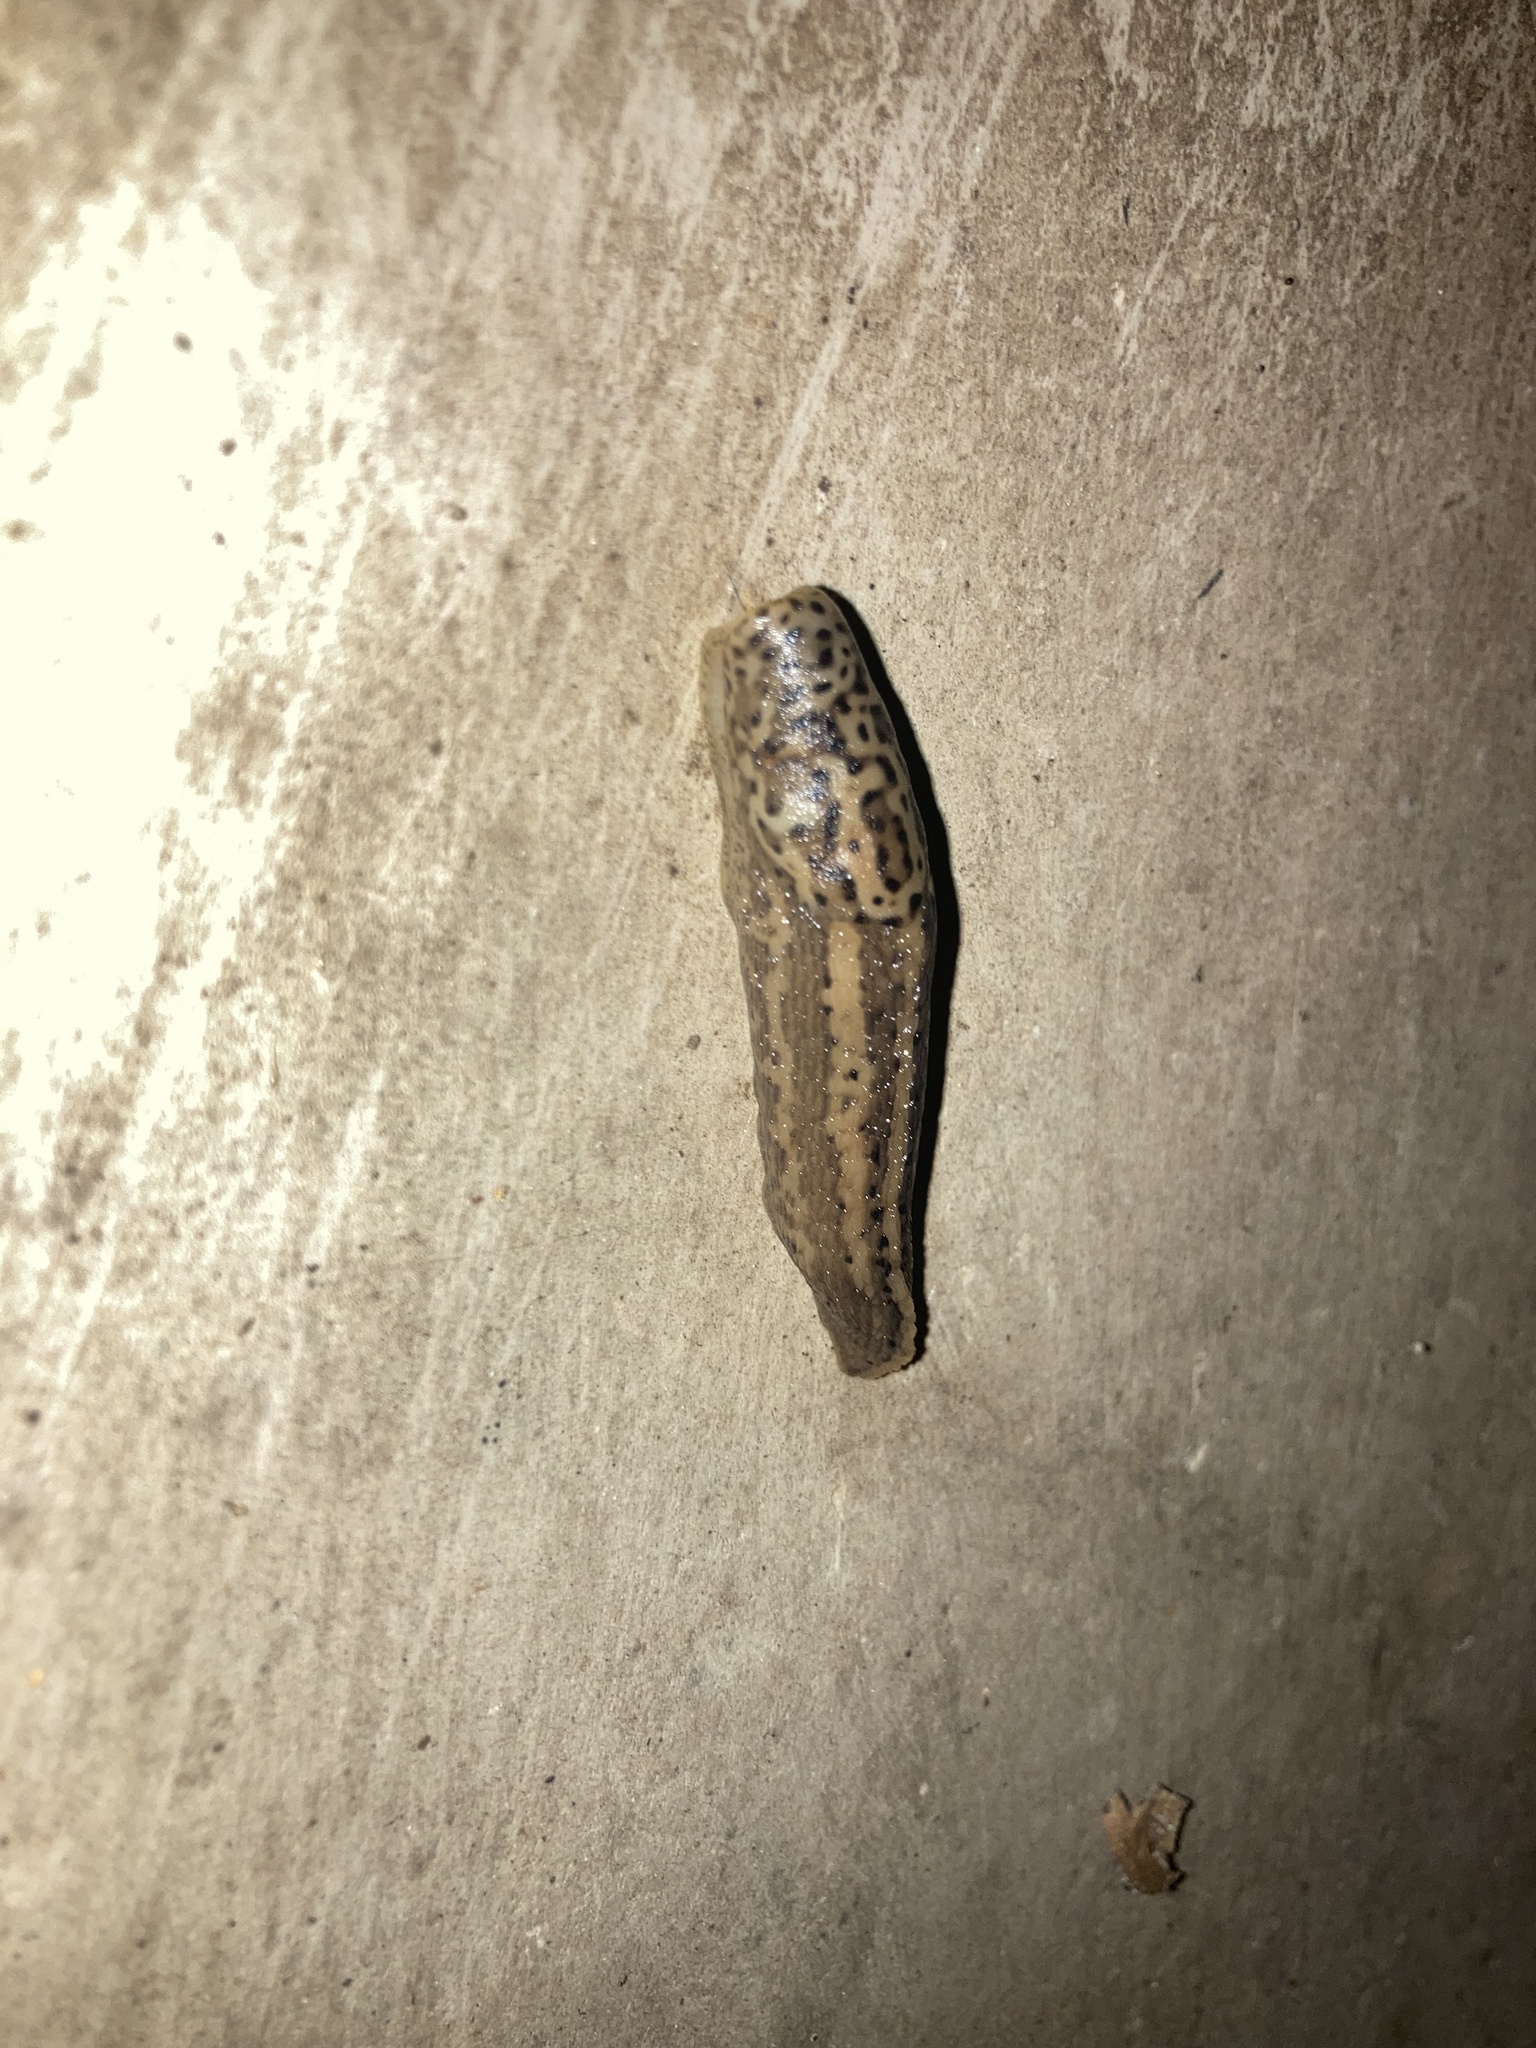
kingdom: Animalia
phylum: Mollusca
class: Gastropoda
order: Stylommatophora
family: Limacidae
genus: Limax
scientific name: Limax maximus
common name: Great grey slug
